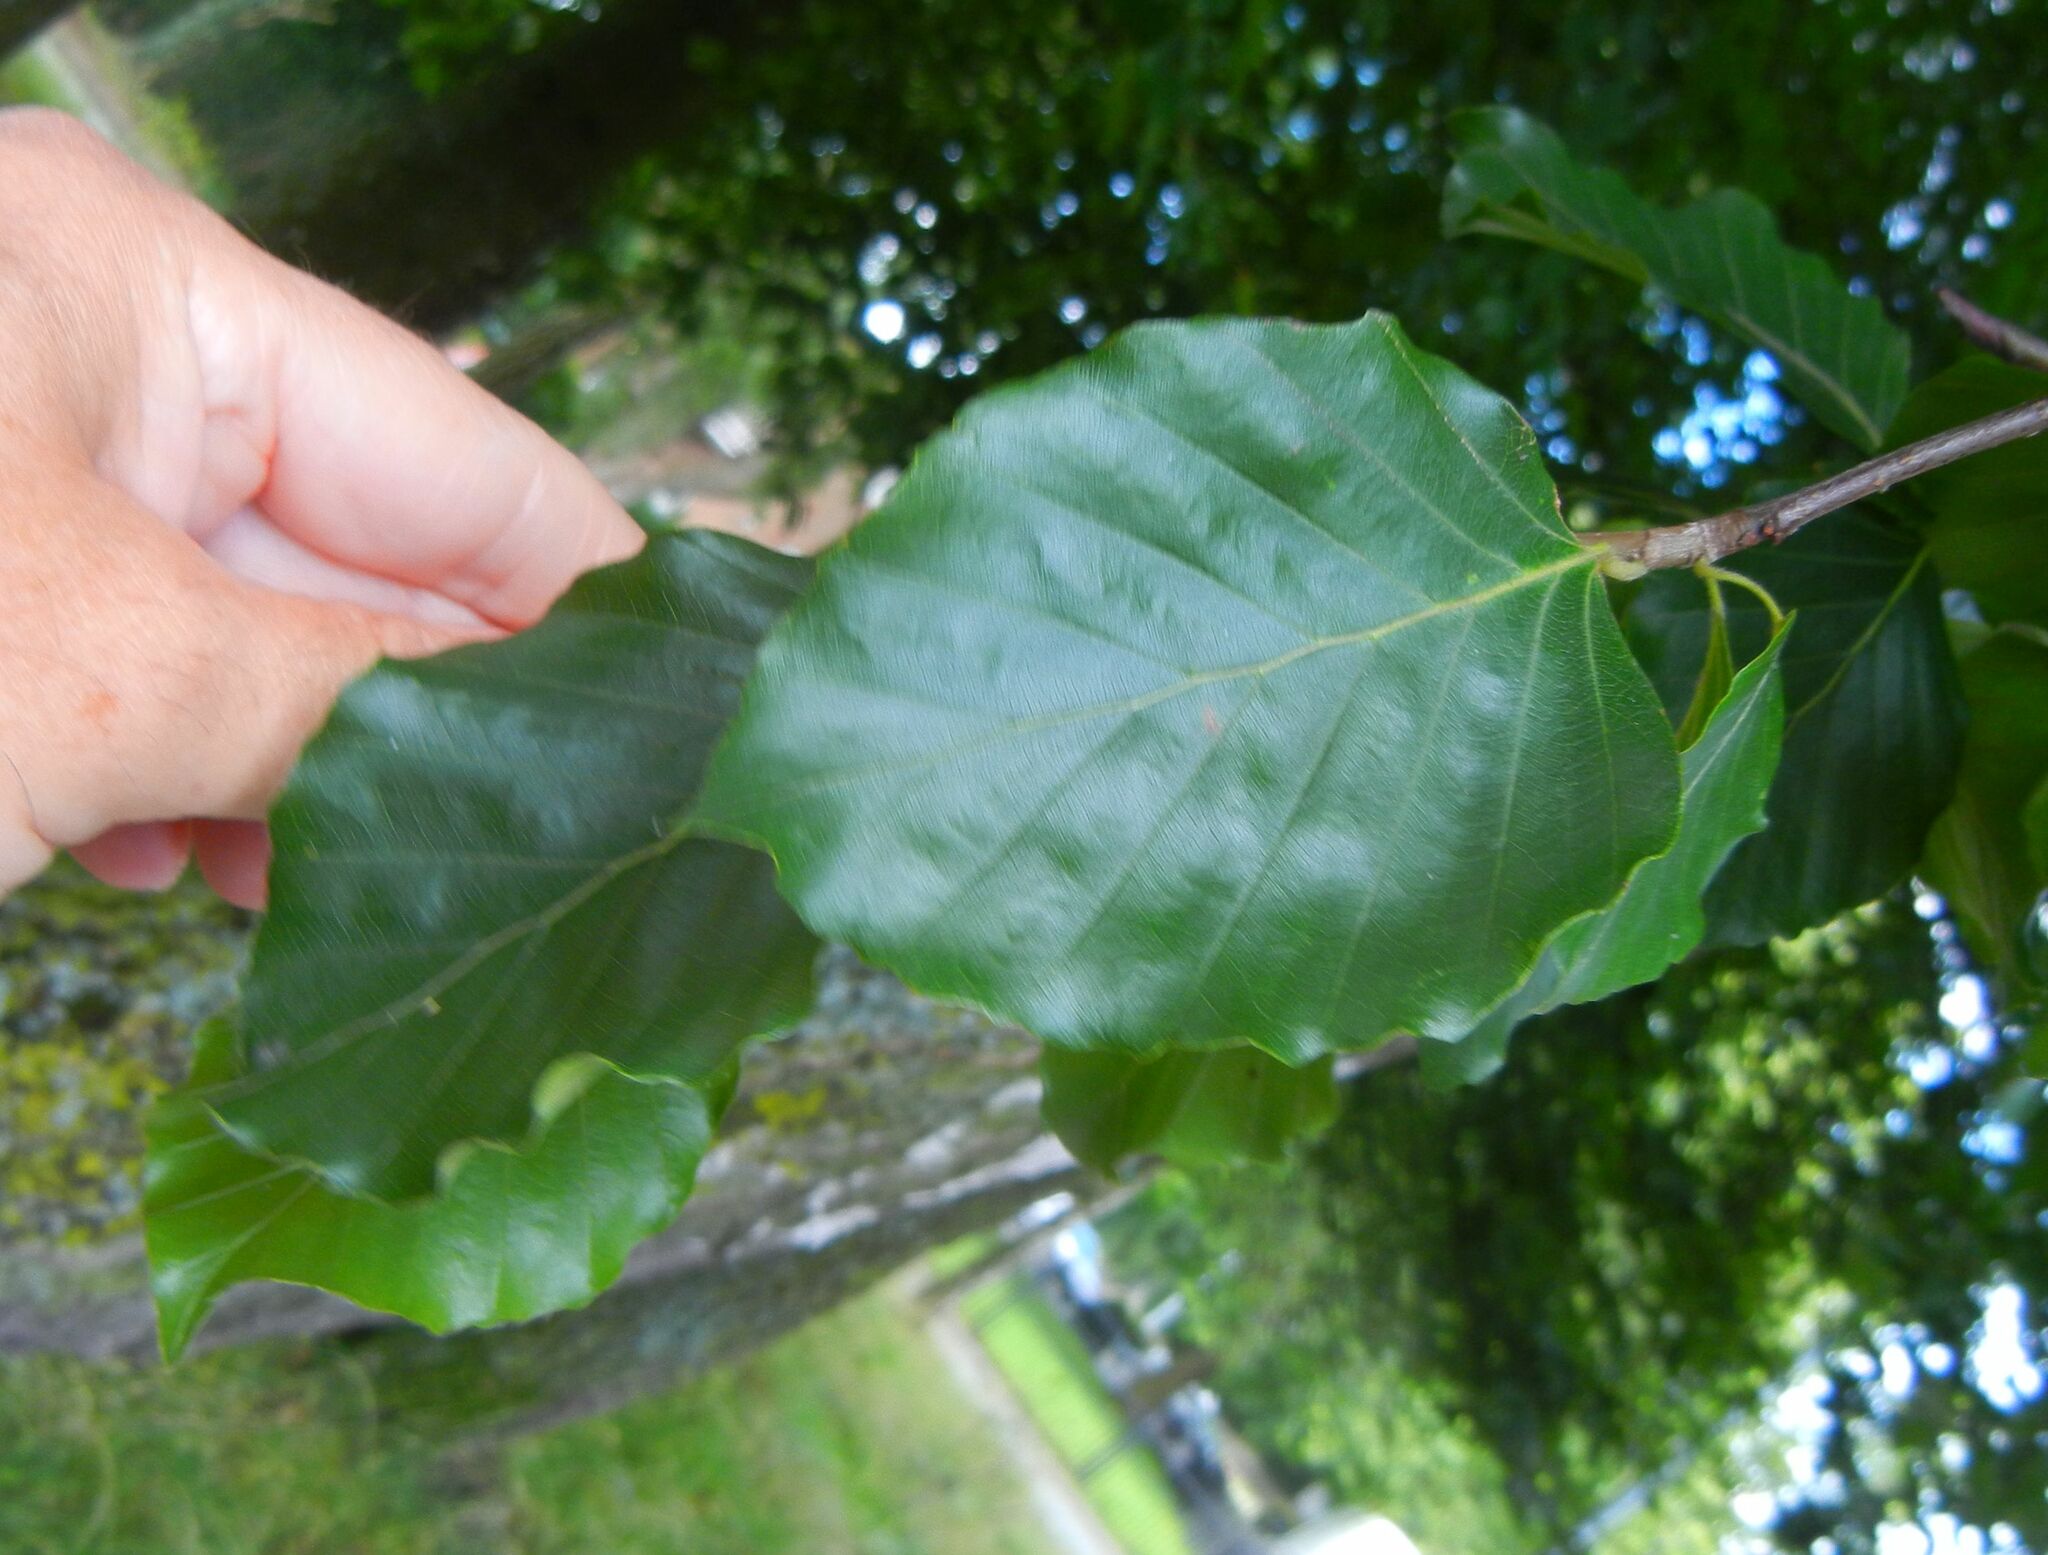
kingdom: Plantae
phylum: Tracheophyta
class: Magnoliopsida
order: Fagales
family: Fagaceae
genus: Fagus
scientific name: Fagus sylvatica
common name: Beech
